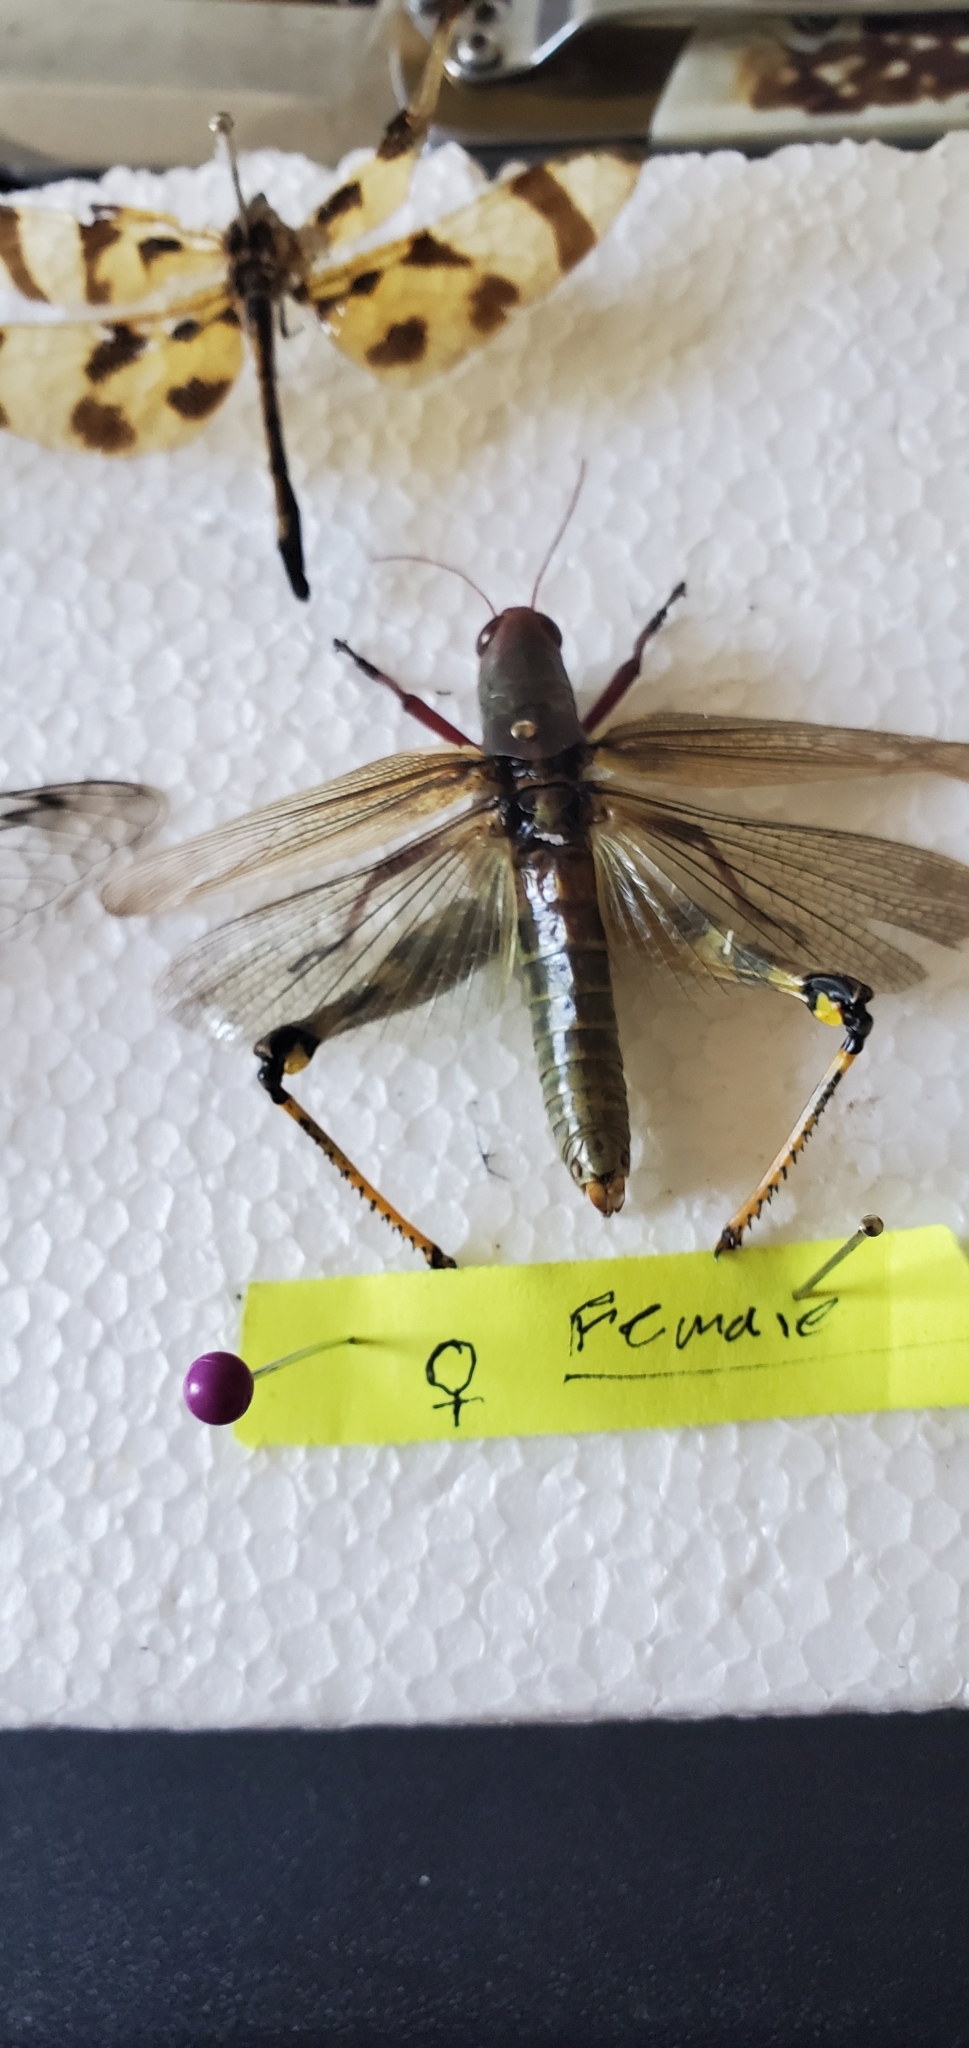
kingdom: Animalia
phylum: Arthropoda
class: Insecta
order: Orthoptera
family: Acrididae
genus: Melanoplus
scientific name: Melanoplus differentialis
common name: Differential grasshopper
